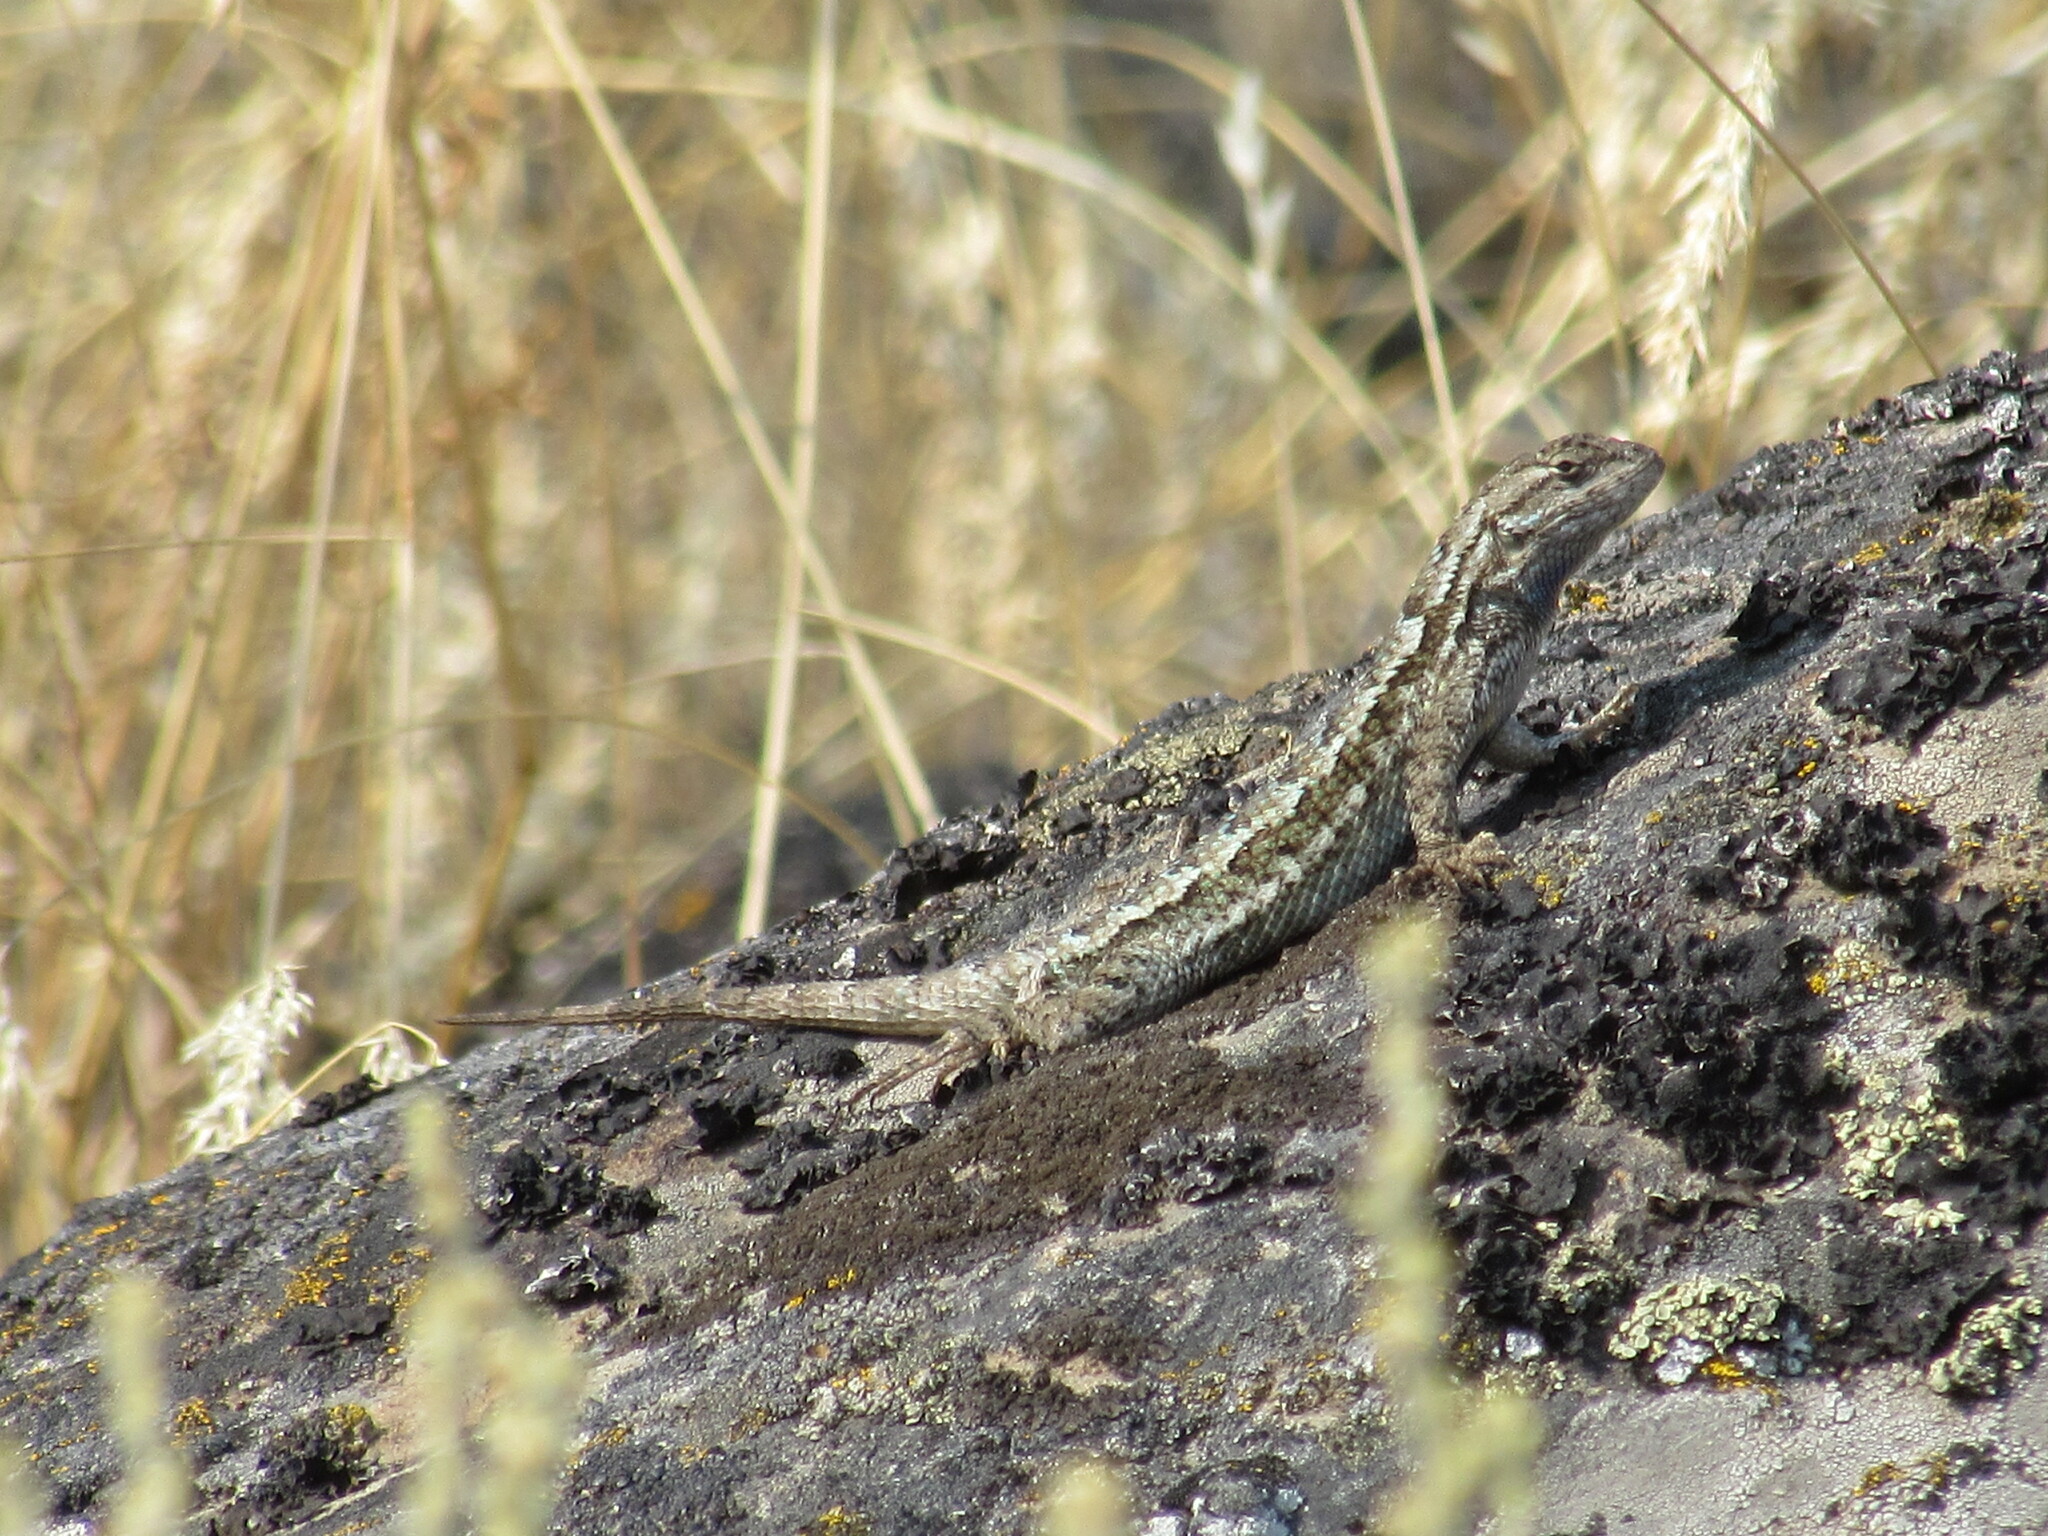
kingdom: Animalia
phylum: Chordata
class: Squamata
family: Phrynosomatidae
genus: Sceloporus
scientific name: Sceloporus occidentalis
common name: Western fence lizard
